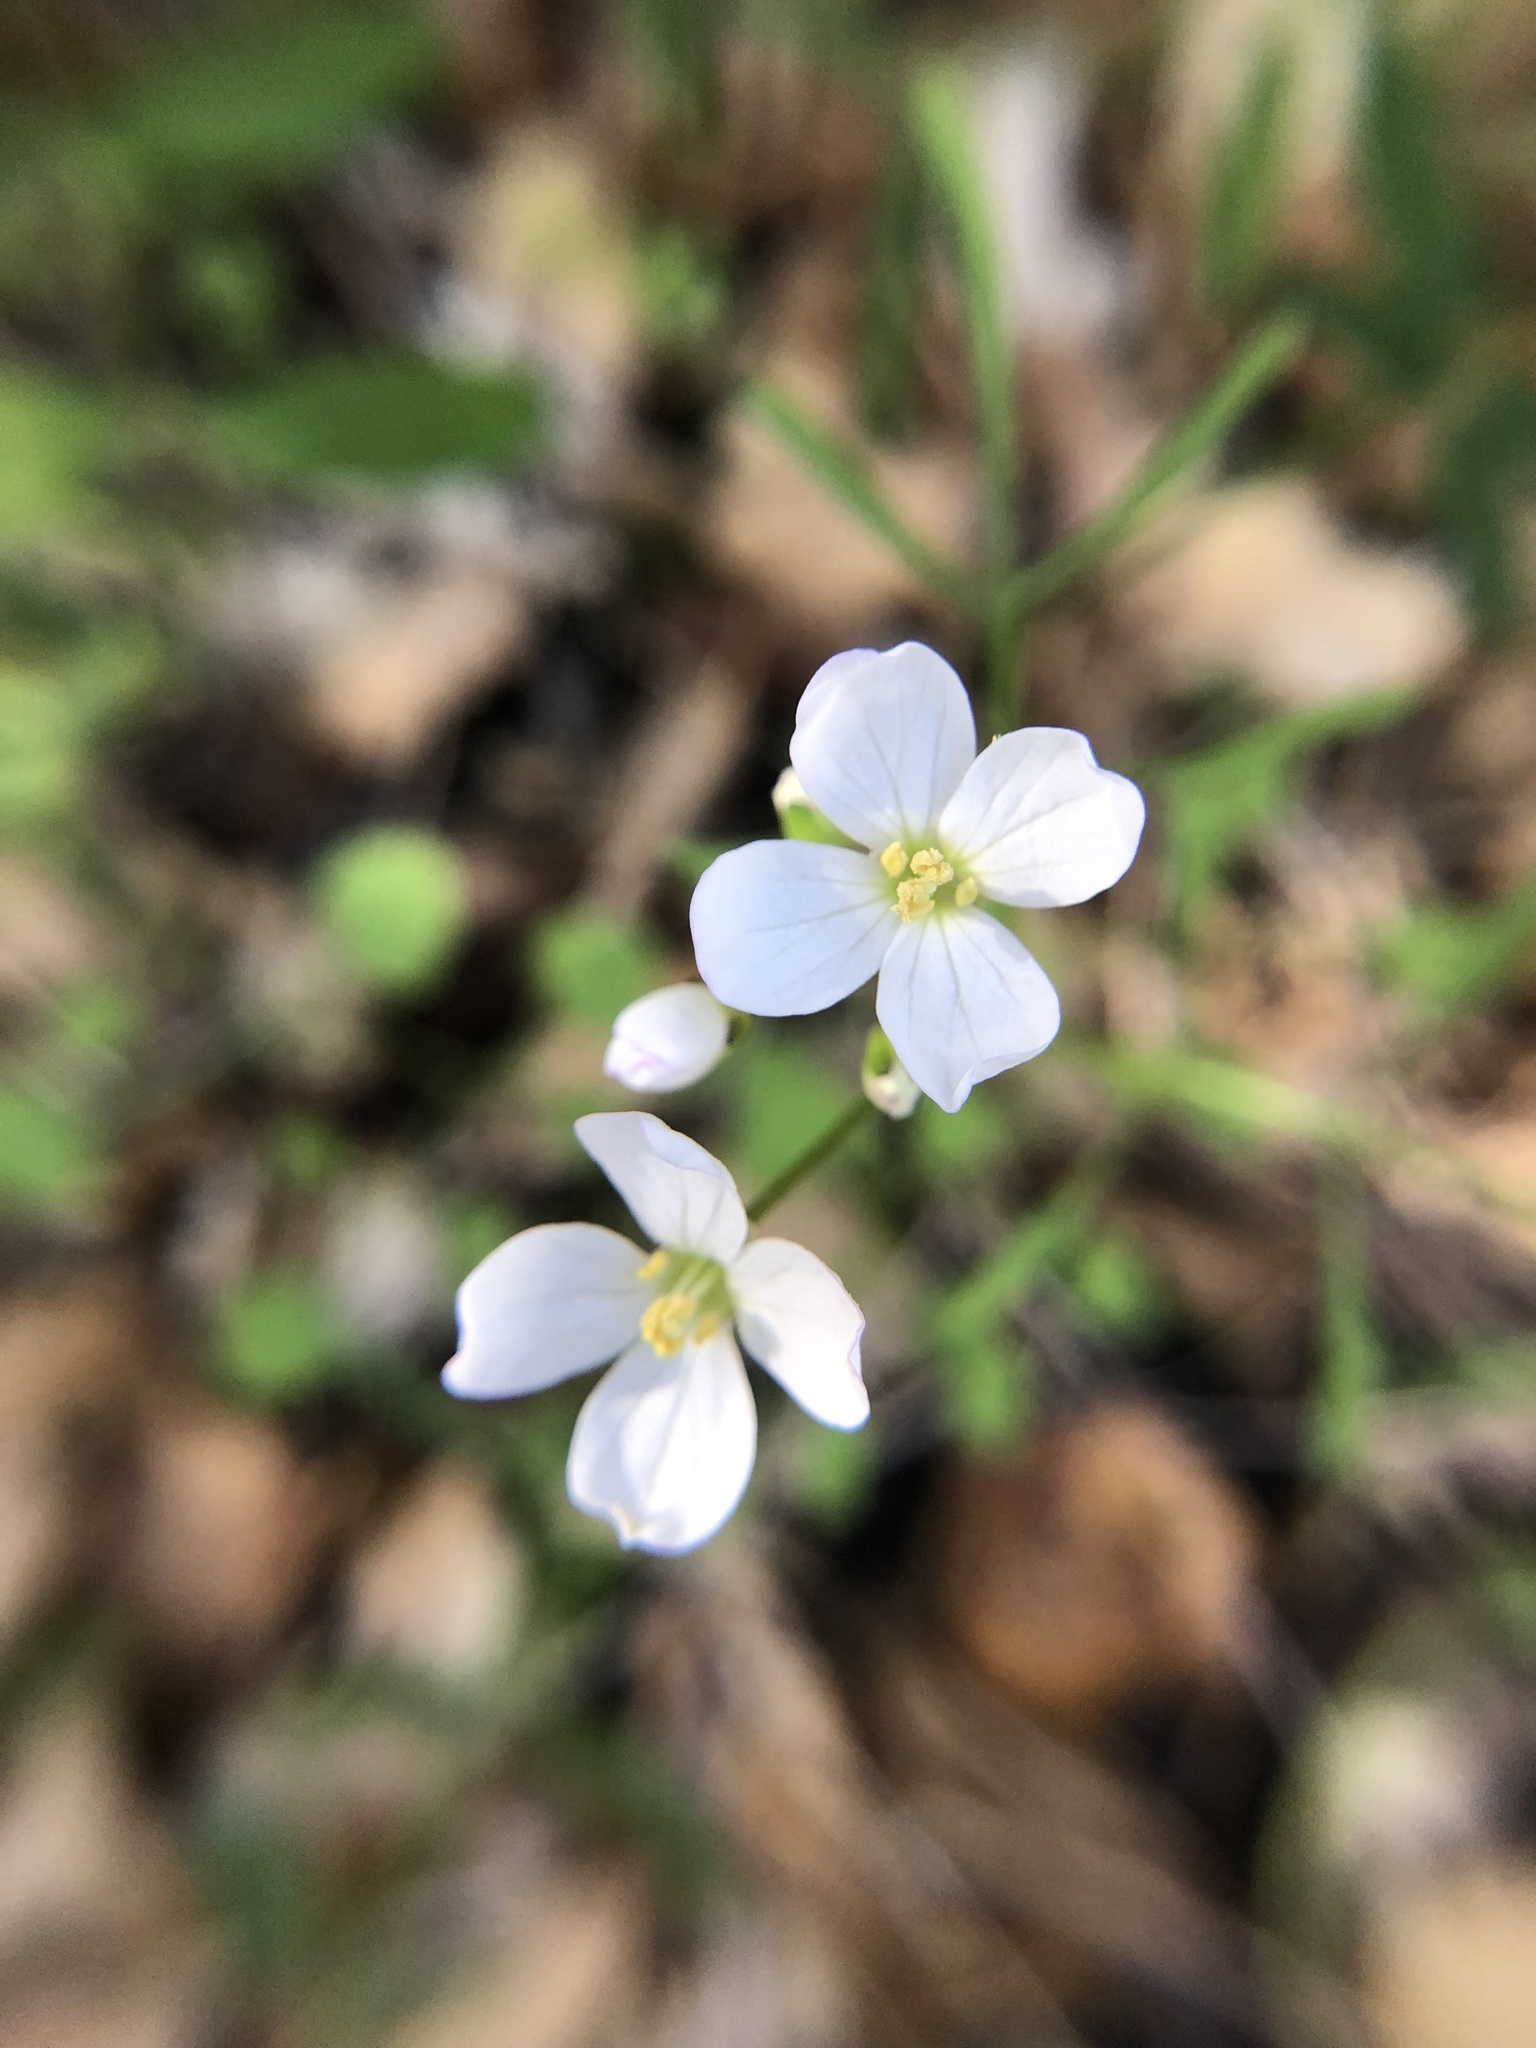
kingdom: Plantae
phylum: Tracheophyta
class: Magnoliopsida
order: Brassicales
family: Brassicaceae
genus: Cardamine
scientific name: Cardamine californica
